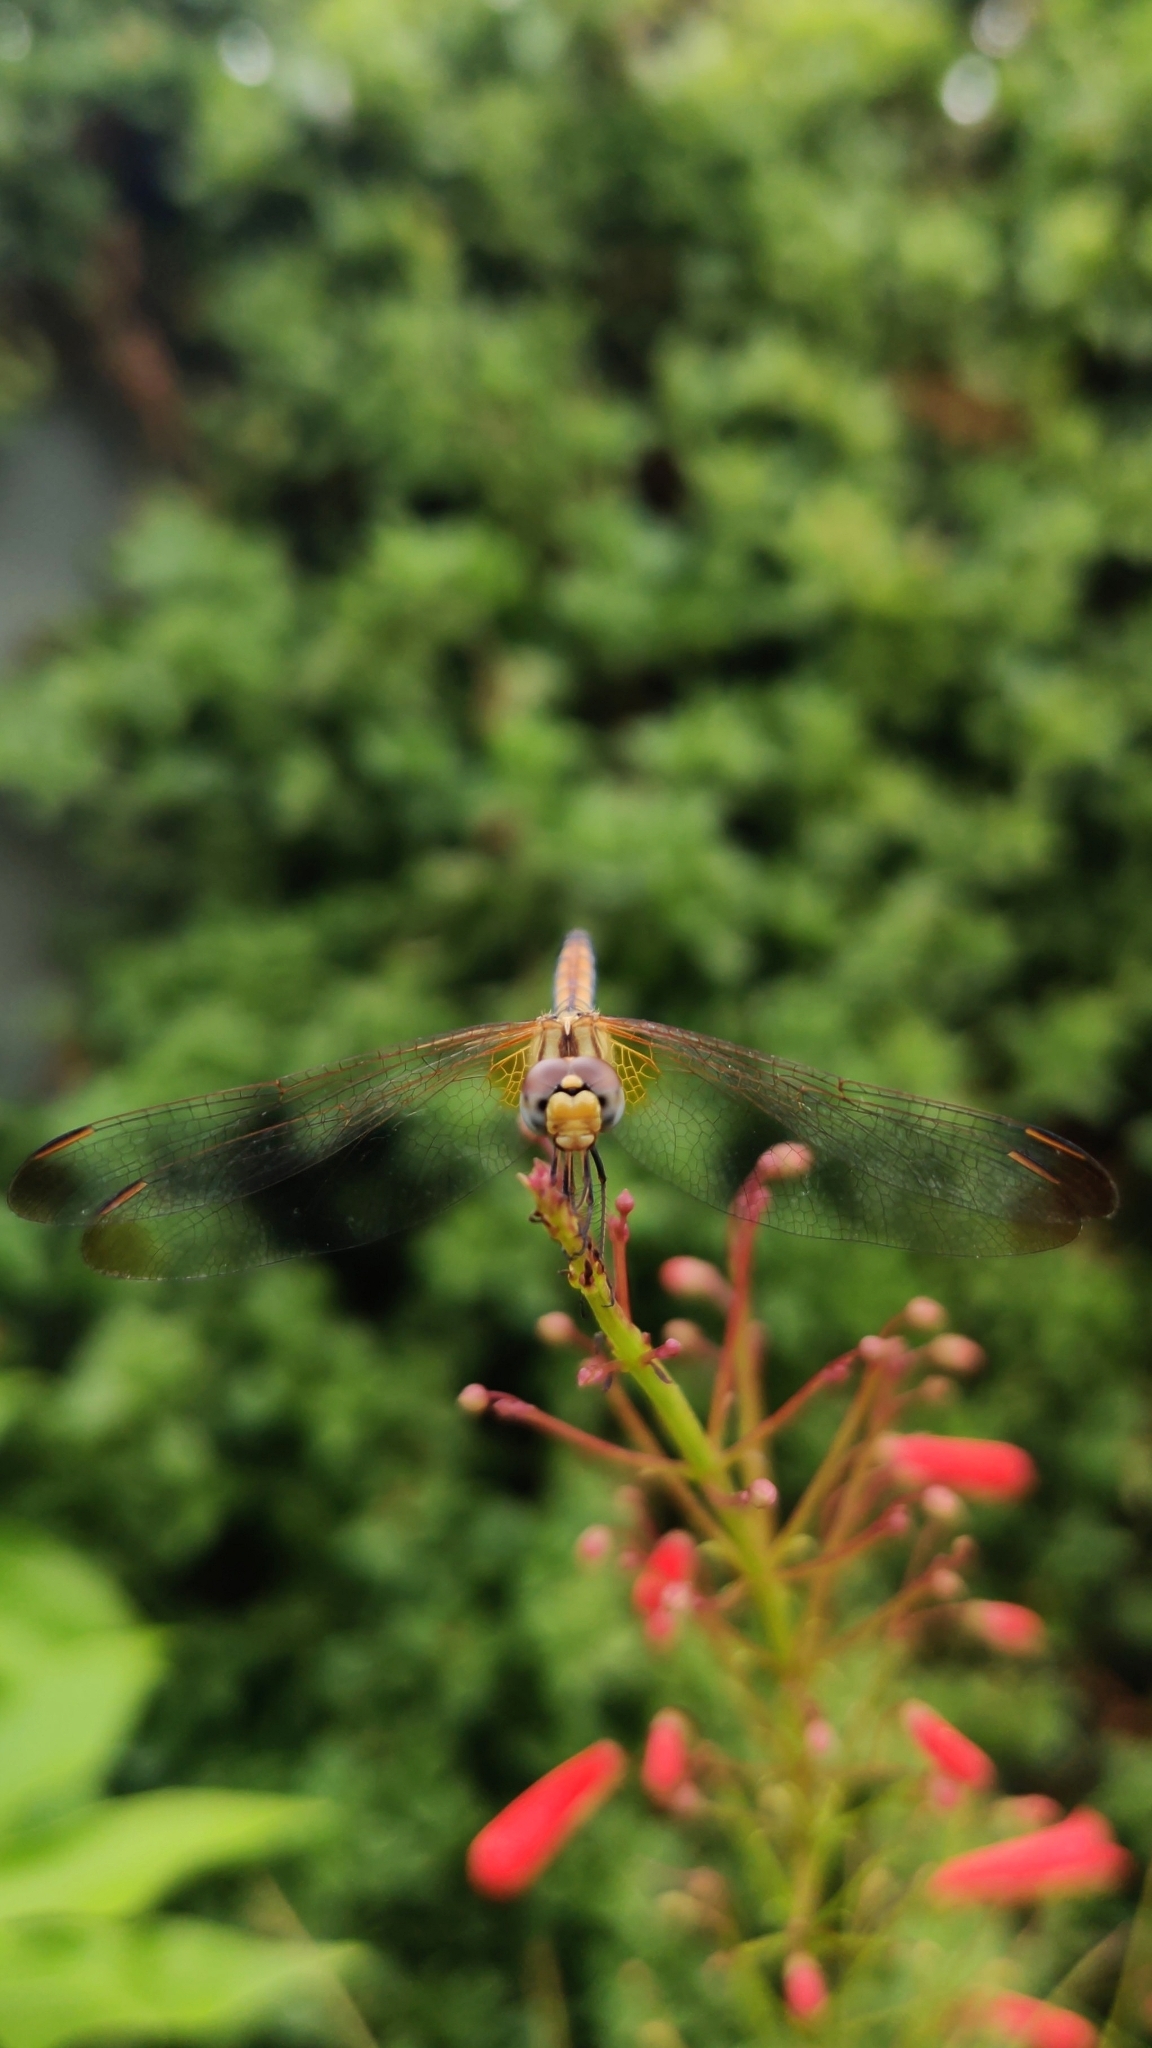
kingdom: Animalia
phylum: Arthropoda
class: Insecta
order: Odonata
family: Libellulidae
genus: Trithemis
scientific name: Trithemis aurora
